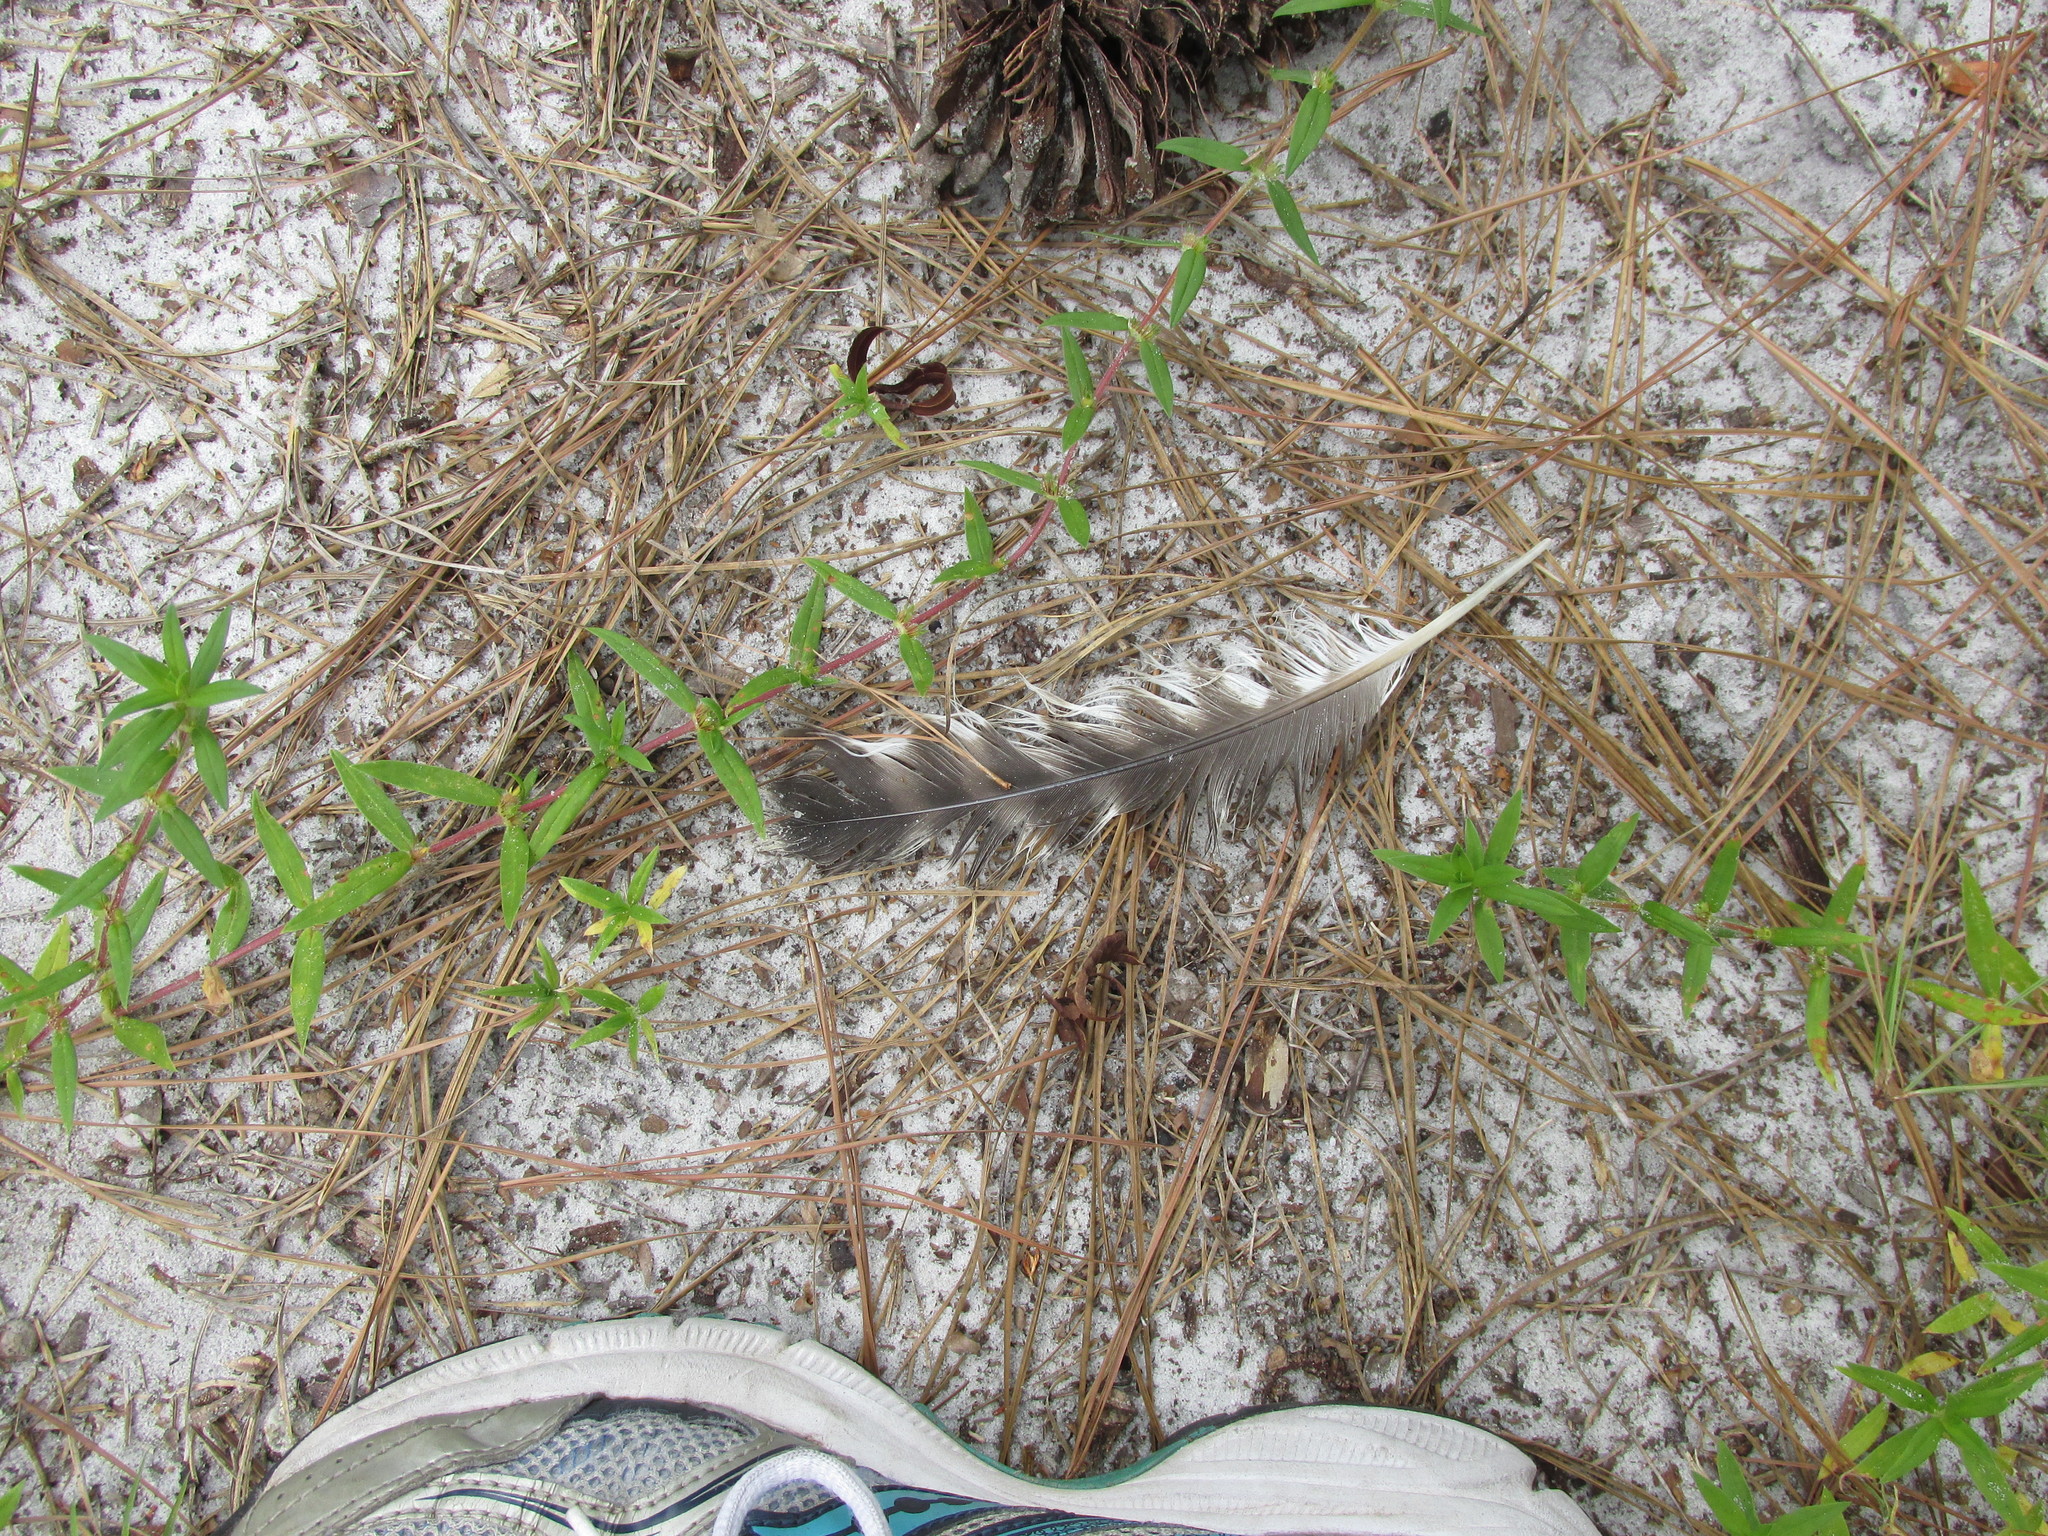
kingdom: Animalia
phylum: Chordata
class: Aves
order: Accipitriformes
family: Accipitridae
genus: Buteo
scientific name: Buteo lineatus
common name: Red-shouldered hawk
